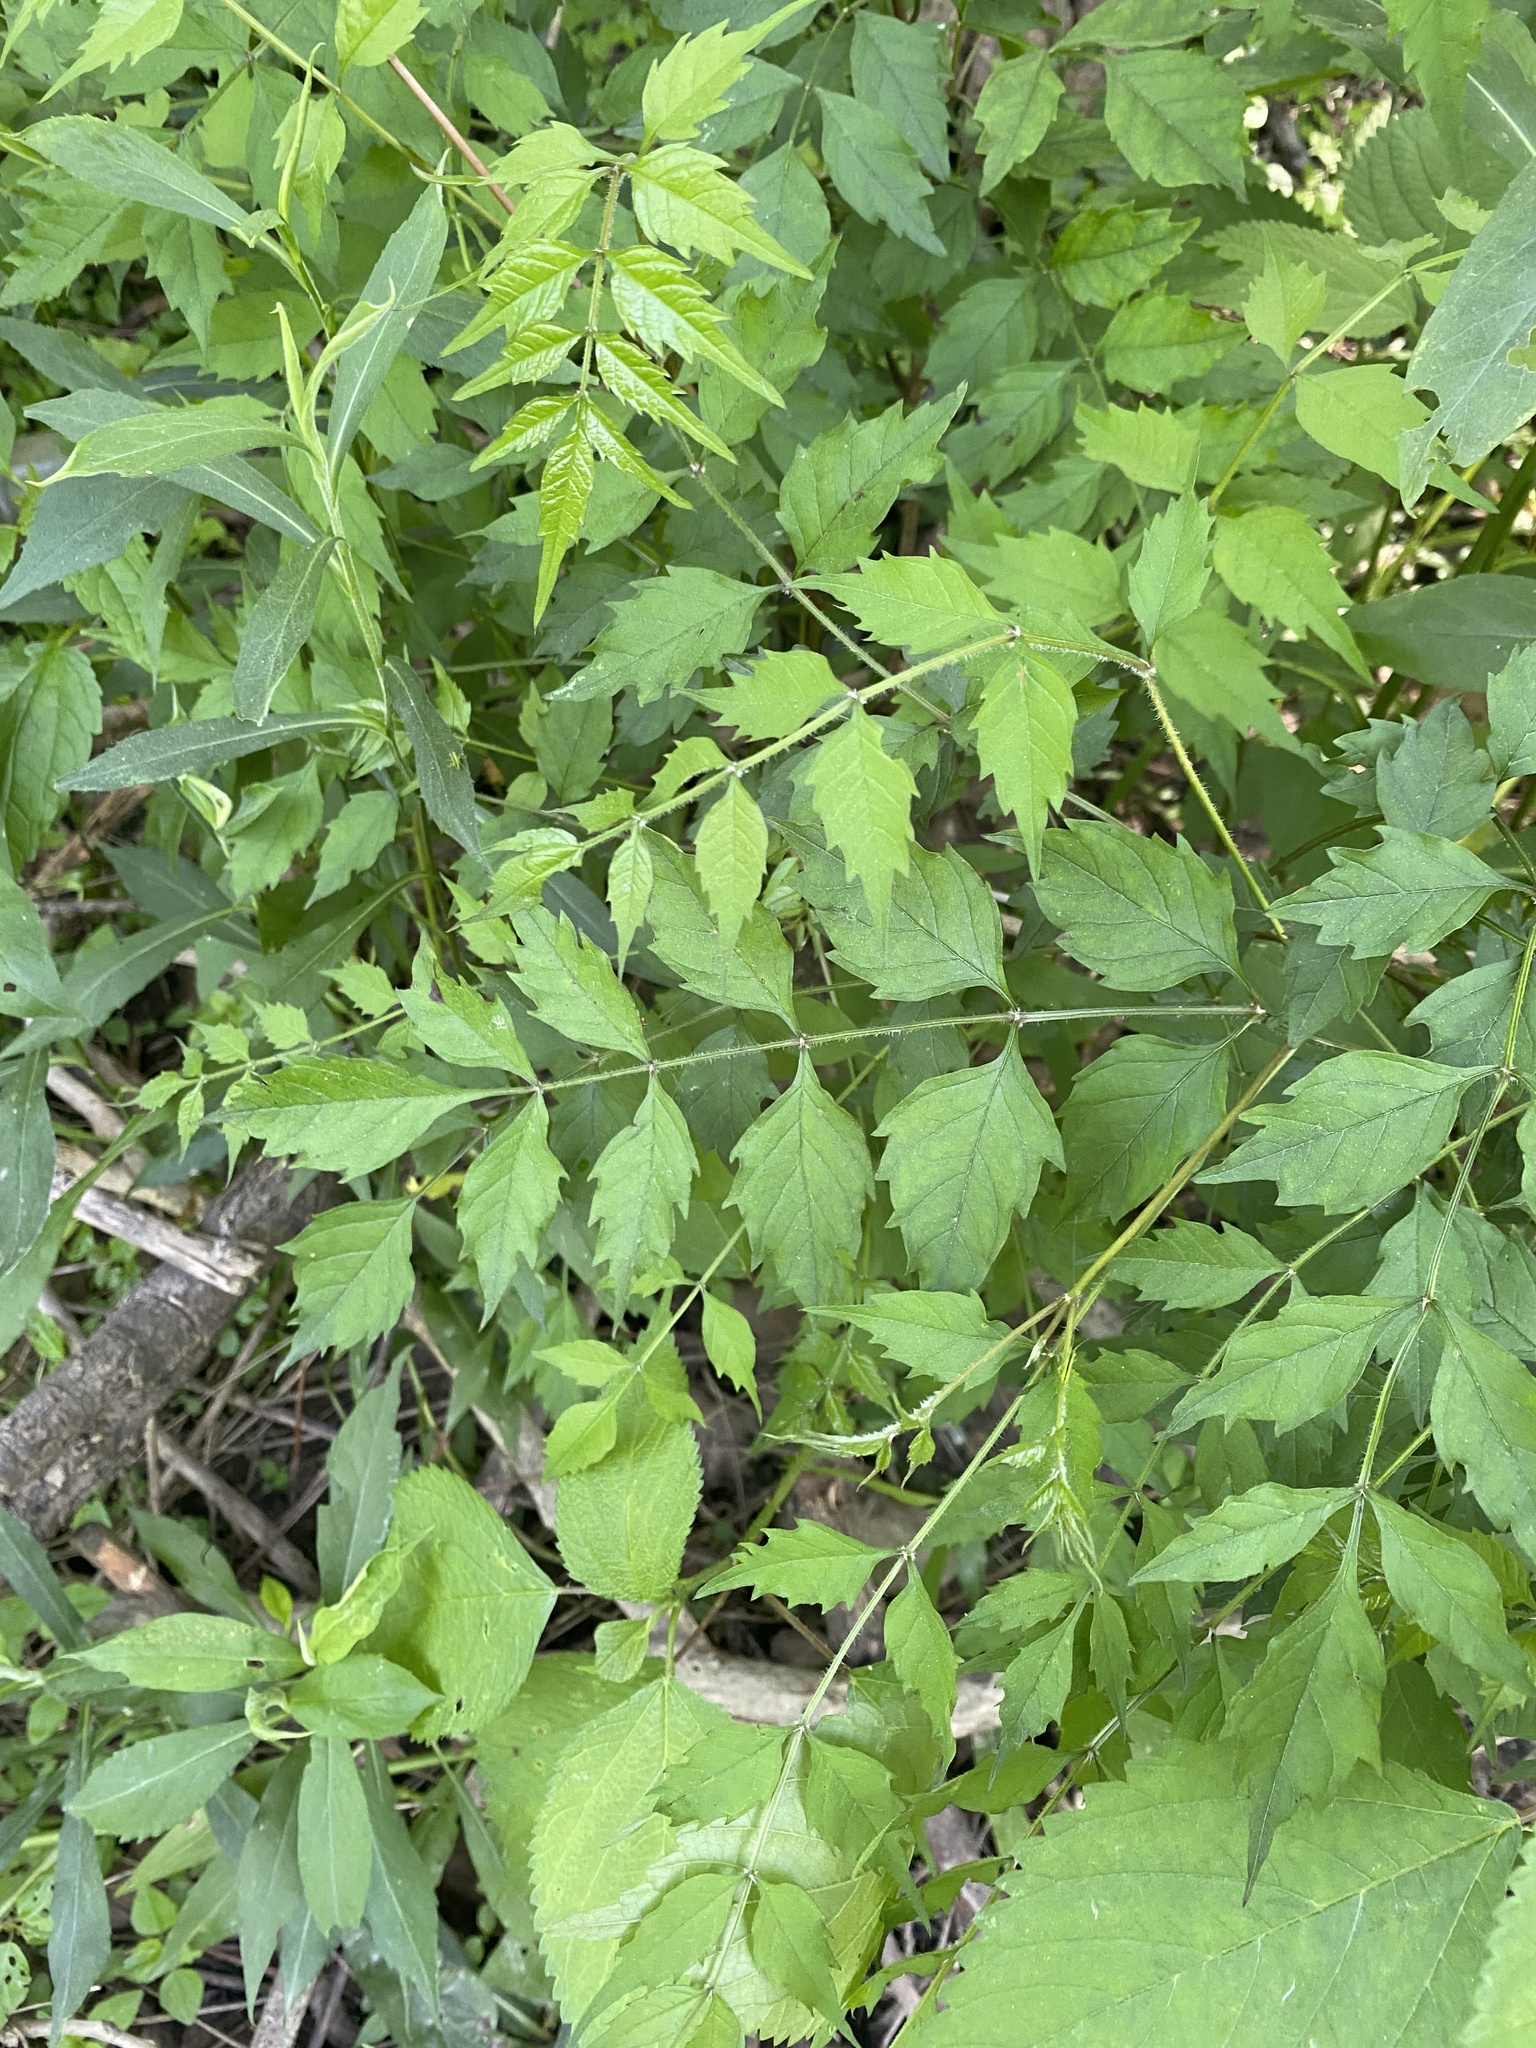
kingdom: Plantae
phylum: Tracheophyta
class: Magnoliopsida
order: Lamiales
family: Bignoniaceae
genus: Campsis
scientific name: Campsis radicans
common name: Trumpet-creeper
